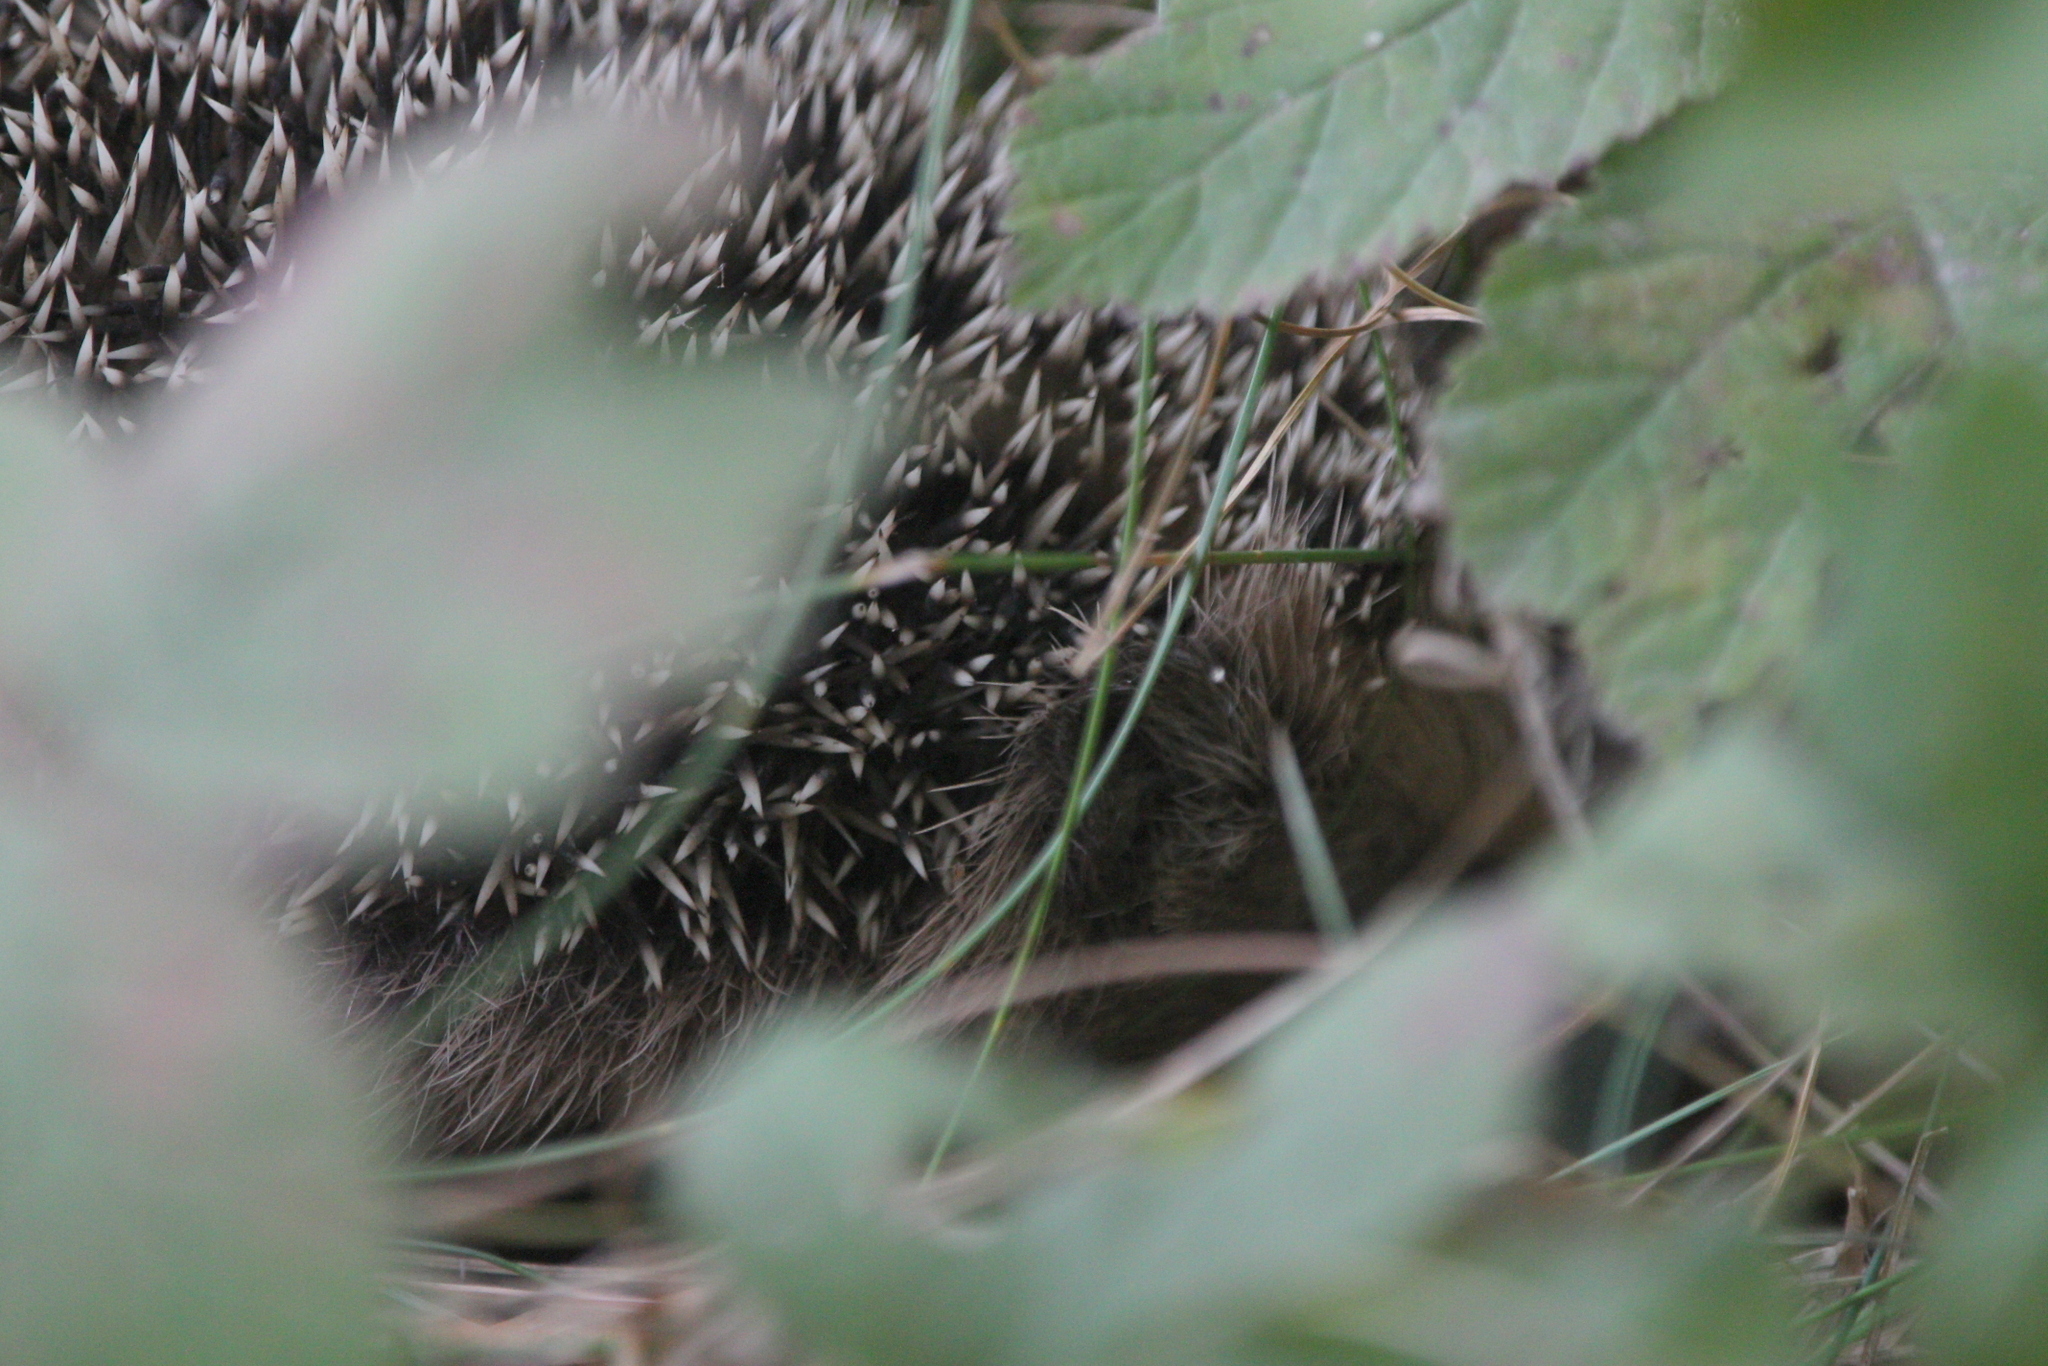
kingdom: Animalia
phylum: Chordata
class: Mammalia
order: Erinaceomorpha
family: Erinaceidae
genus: Erinaceus
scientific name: Erinaceus europaeus
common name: West european hedgehog
